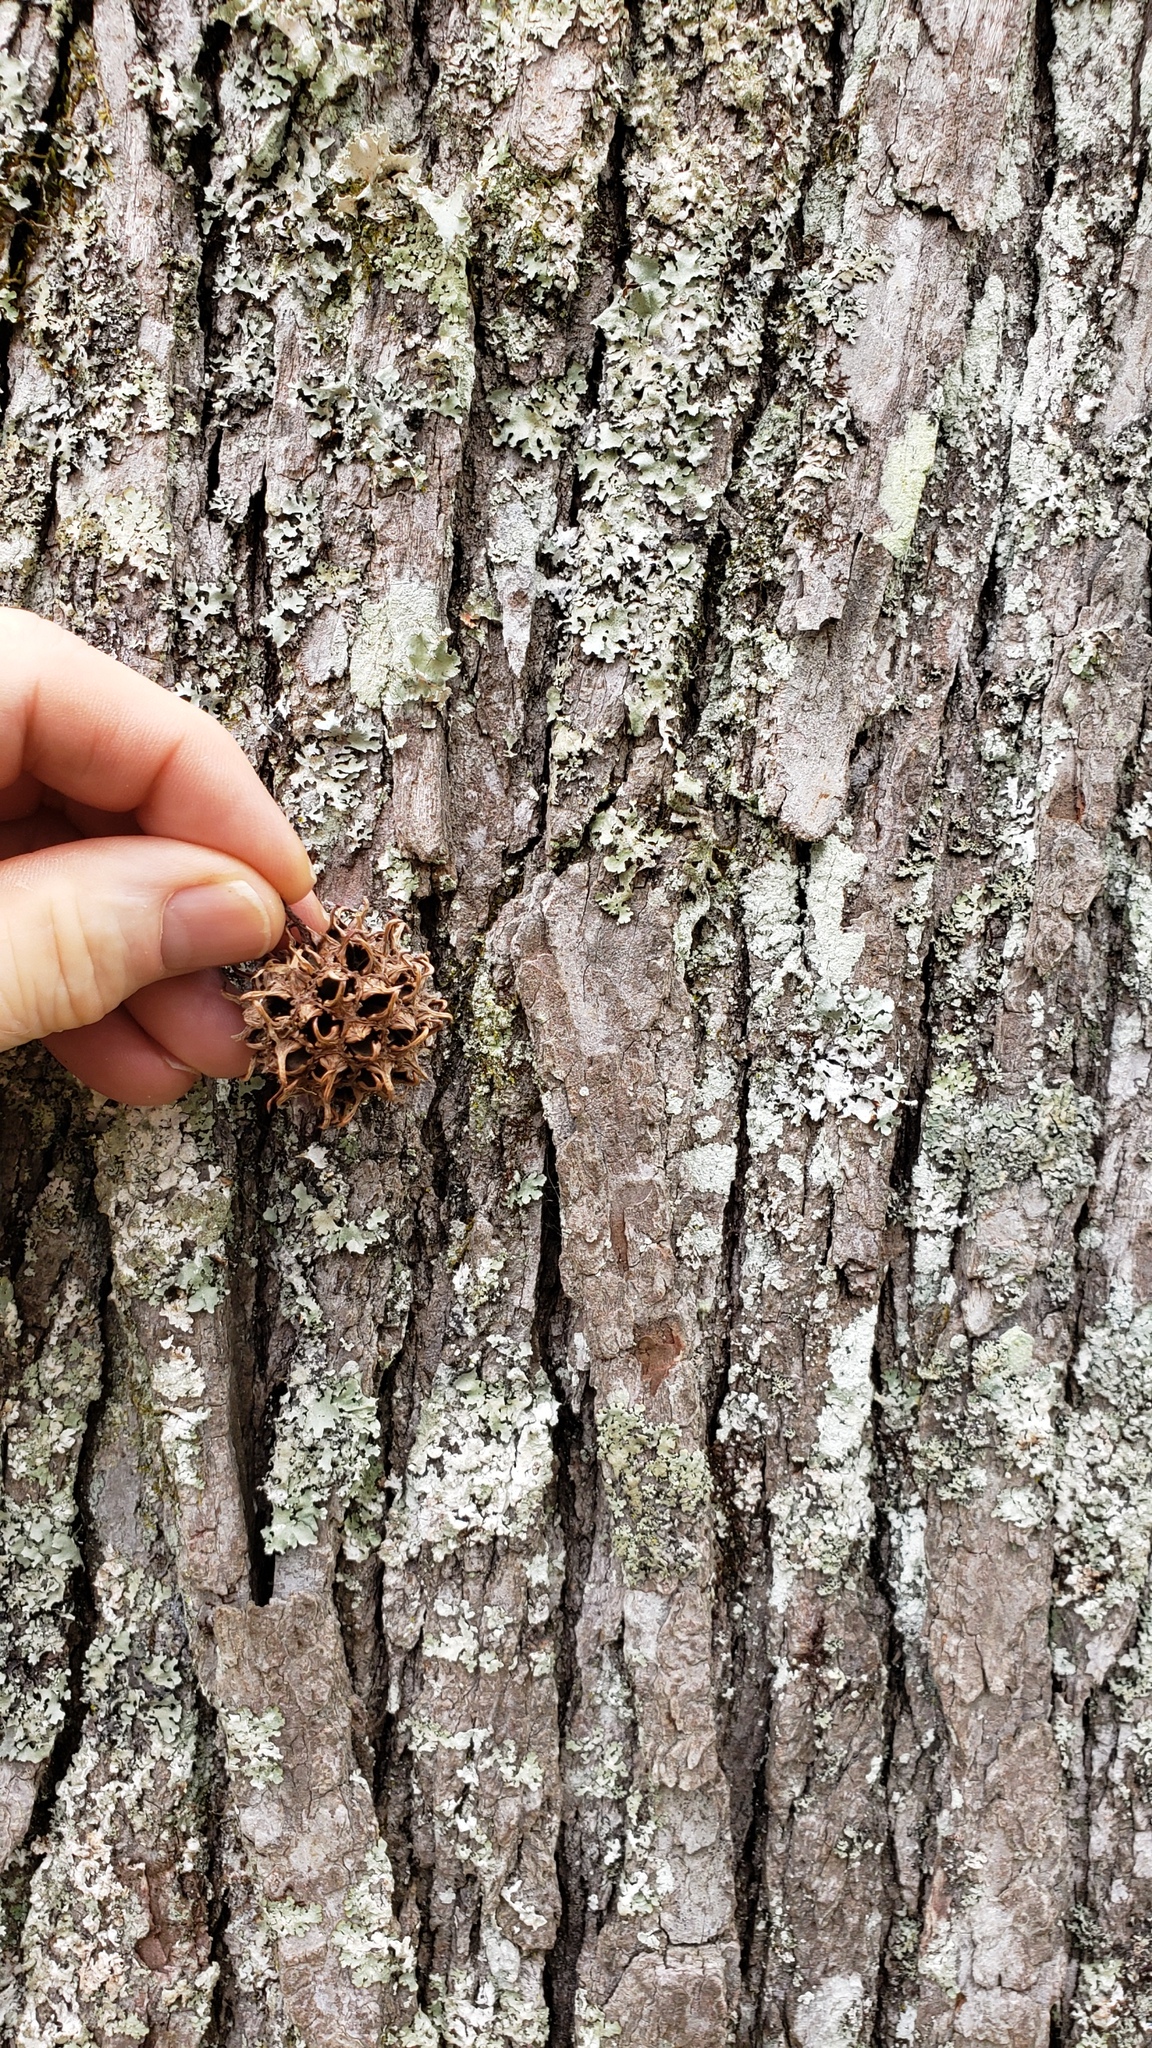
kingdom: Plantae
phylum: Tracheophyta
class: Magnoliopsida
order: Saxifragales
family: Altingiaceae
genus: Liquidambar
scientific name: Liquidambar styraciflua
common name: Sweet gum
